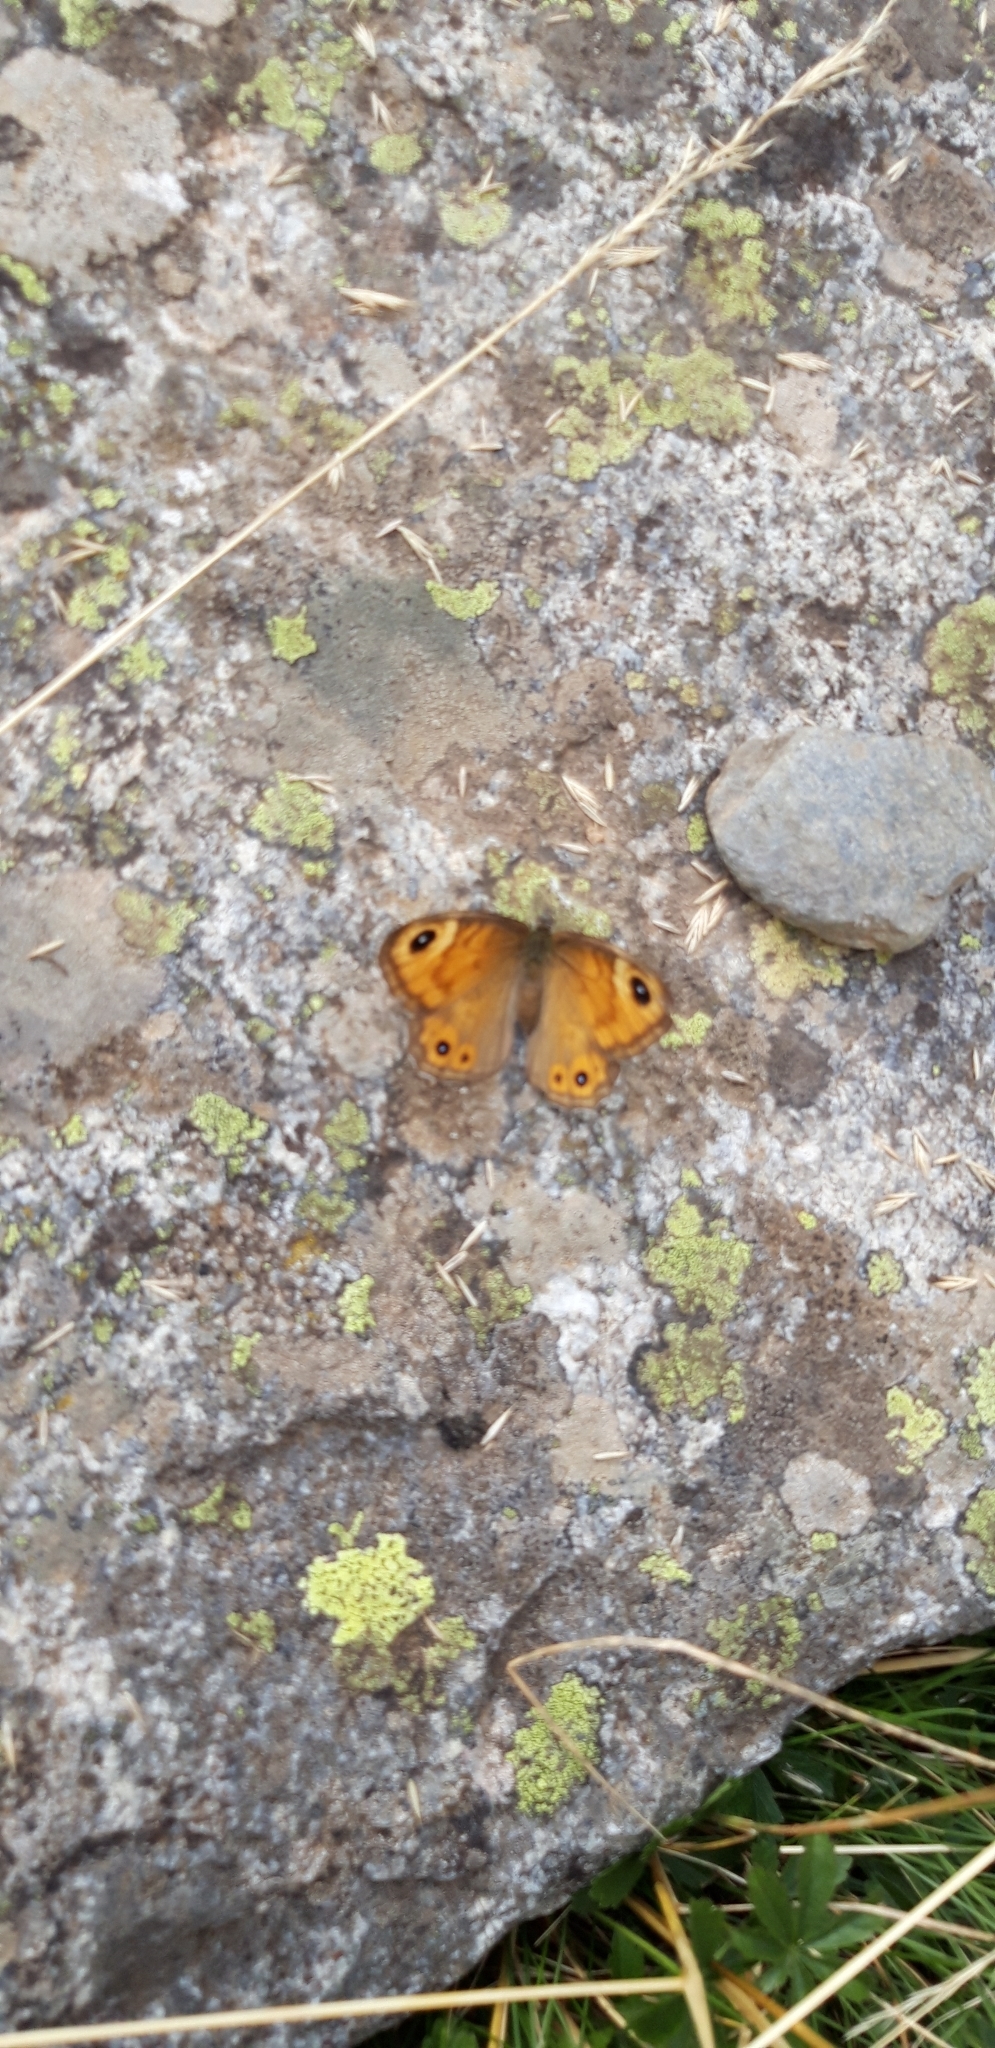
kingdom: Animalia
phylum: Arthropoda
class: Insecta
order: Lepidoptera
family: Nymphalidae
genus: Pararge
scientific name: Pararge Lasiommata maera
